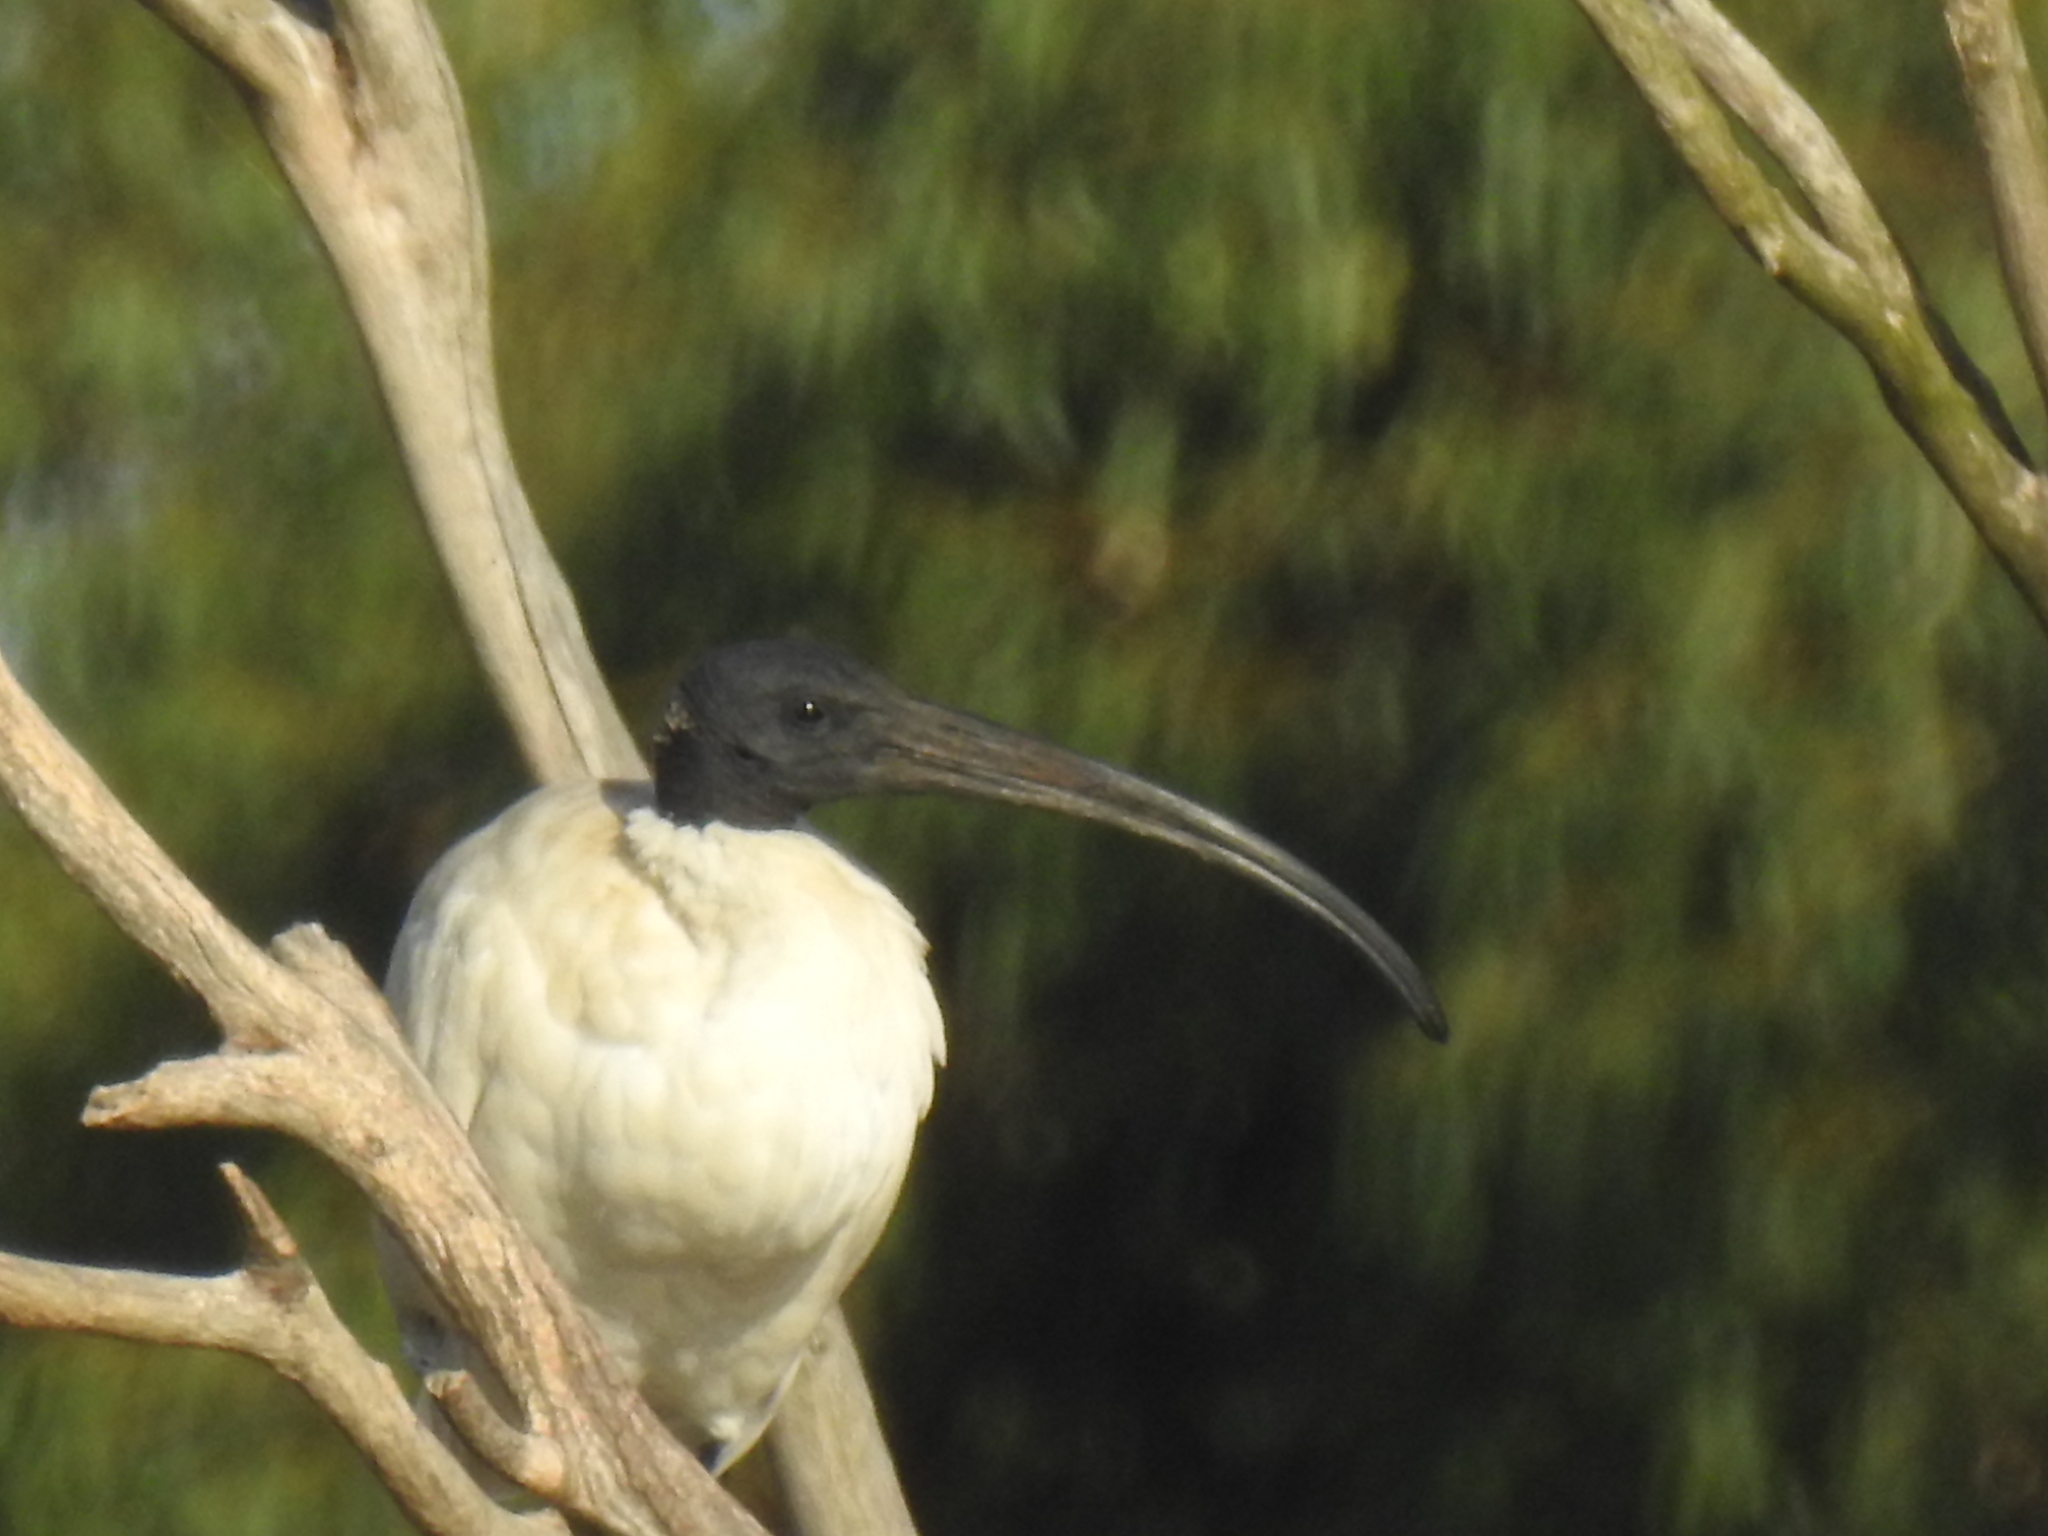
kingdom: Animalia
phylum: Chordata
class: Aves
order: Pelecaniformes
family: Threskiornithidae
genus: Threskiornis
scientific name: Threskiornis molucca
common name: Australian white ibis
